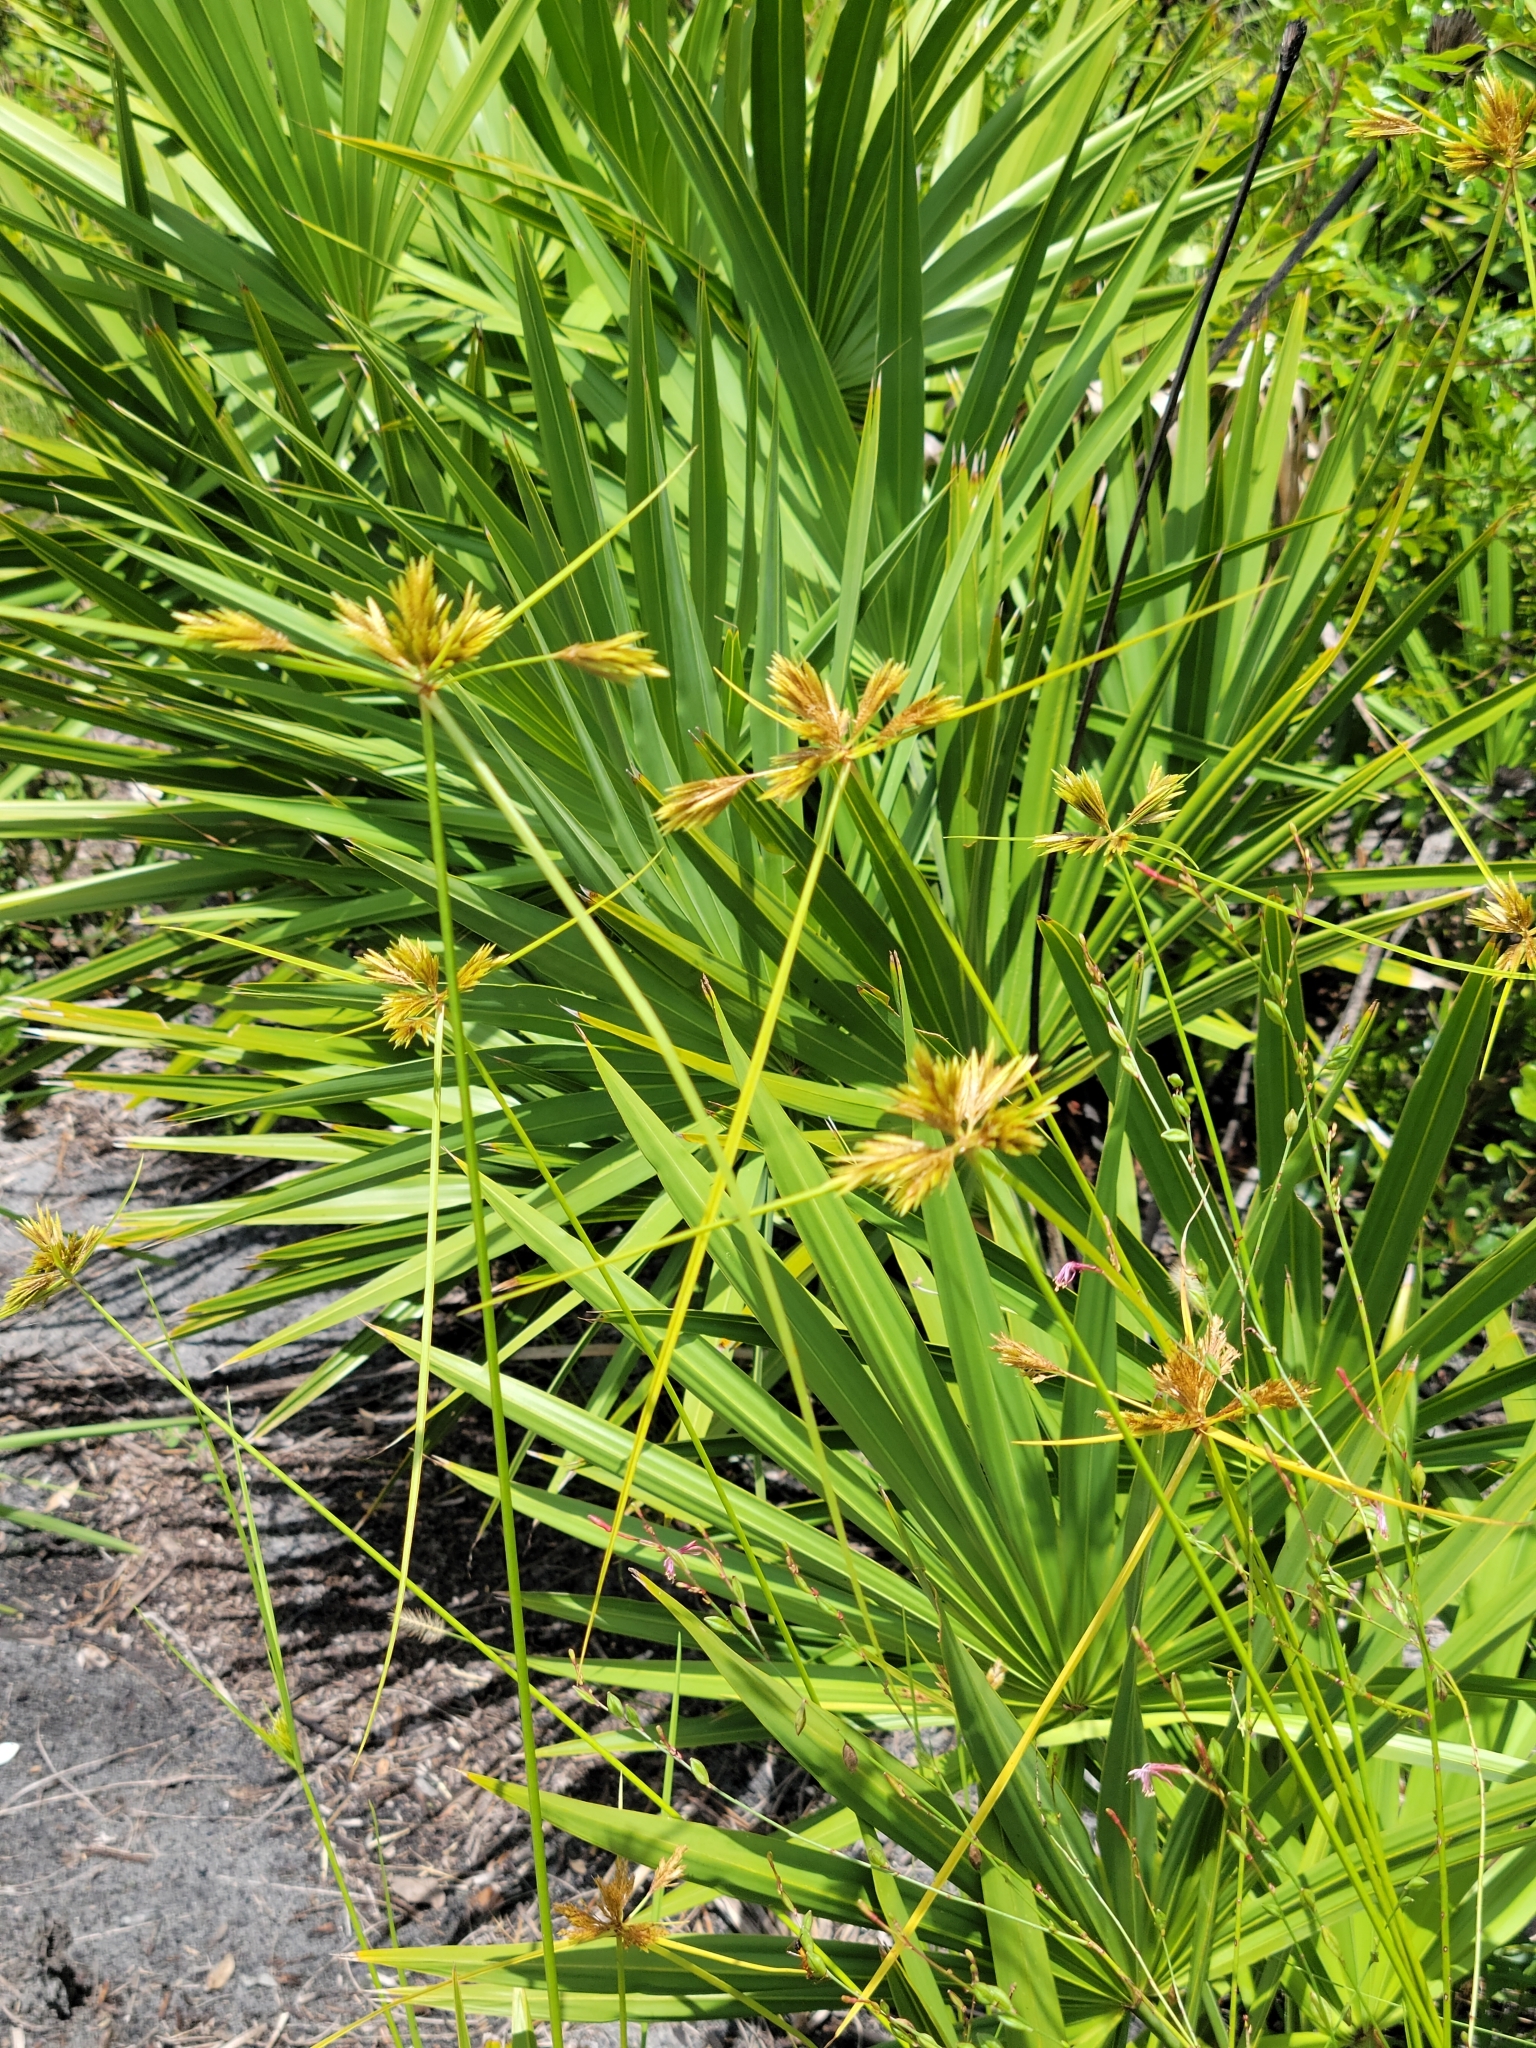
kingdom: Plantae
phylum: Tracheophyta
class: Liliopsida
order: Poales
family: Cyperaceae
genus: Cyperus
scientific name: Cyperus polystachyos
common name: Bunchy flat sedge
